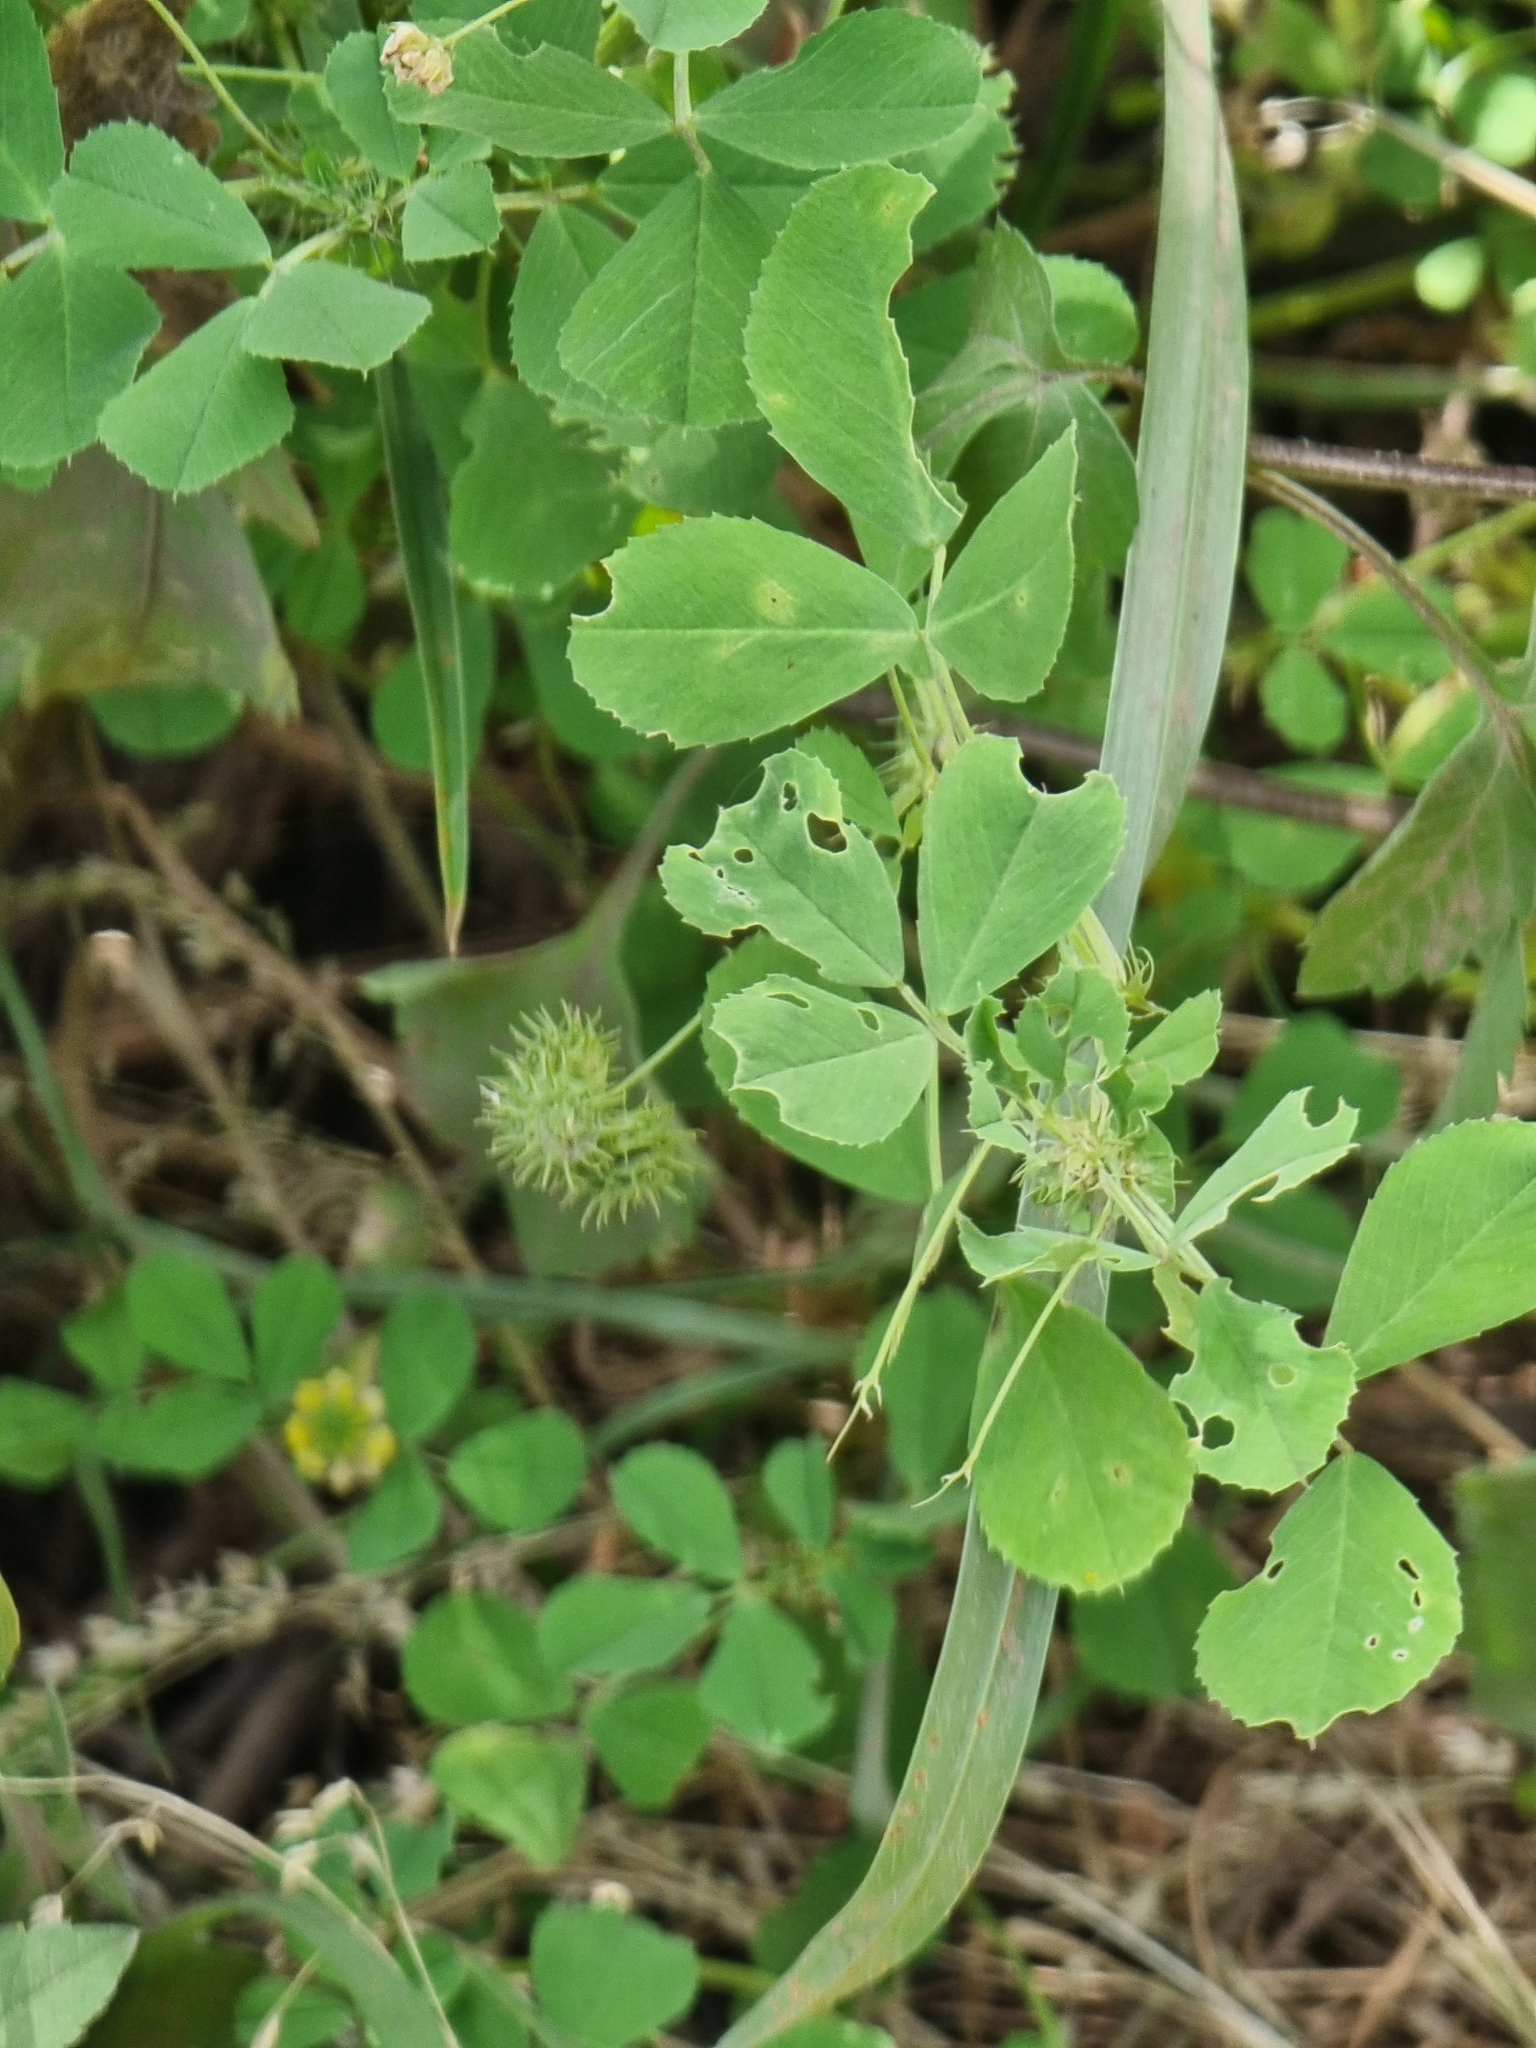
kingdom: Plantae
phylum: Tracheophyta
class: Magnoliopsida
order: Fabales
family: Fabaceae
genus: Medicago
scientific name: Medicago polymorpha
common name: Burclover
